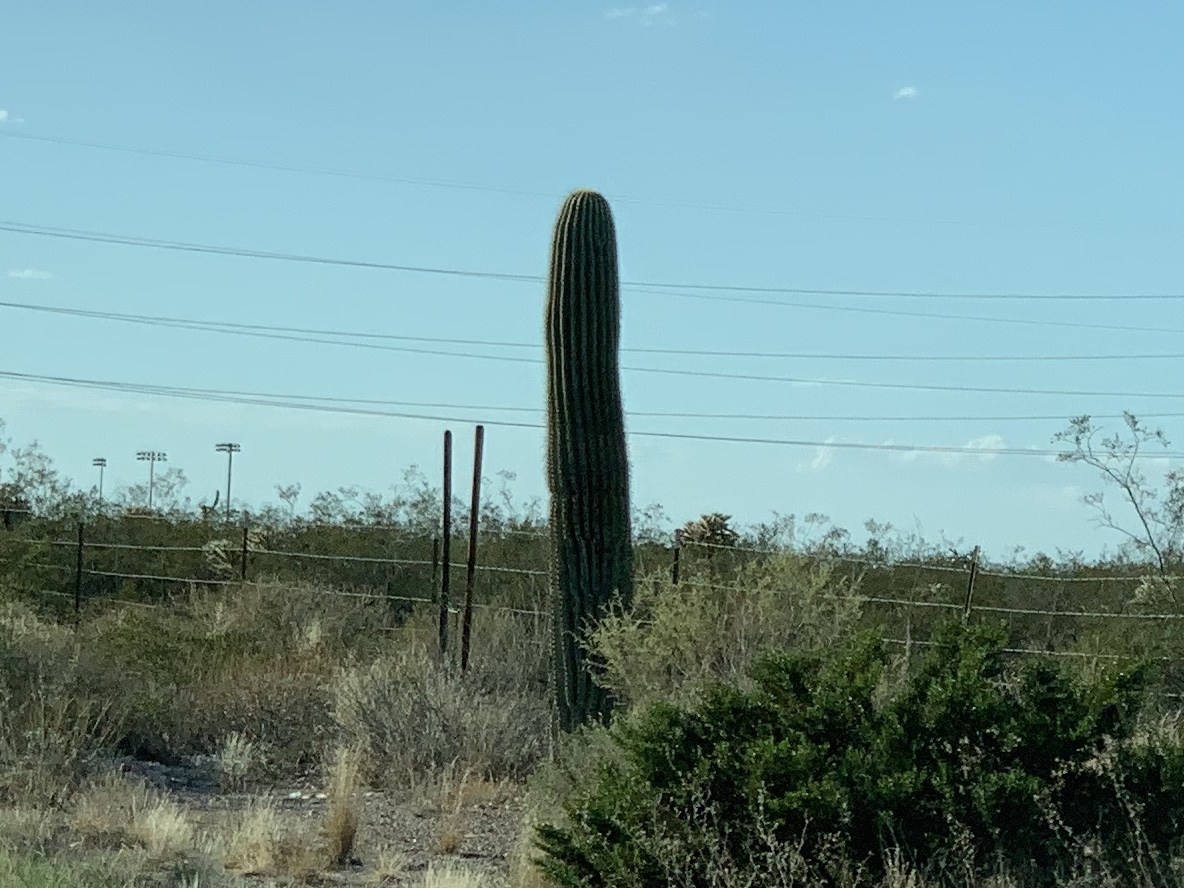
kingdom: Plantae
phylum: Tracheophyta
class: Magnoliopsida
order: Caryophyllales
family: Cactaceae
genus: Carnegiea
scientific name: Carnegiea gigantea
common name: Saguaro
